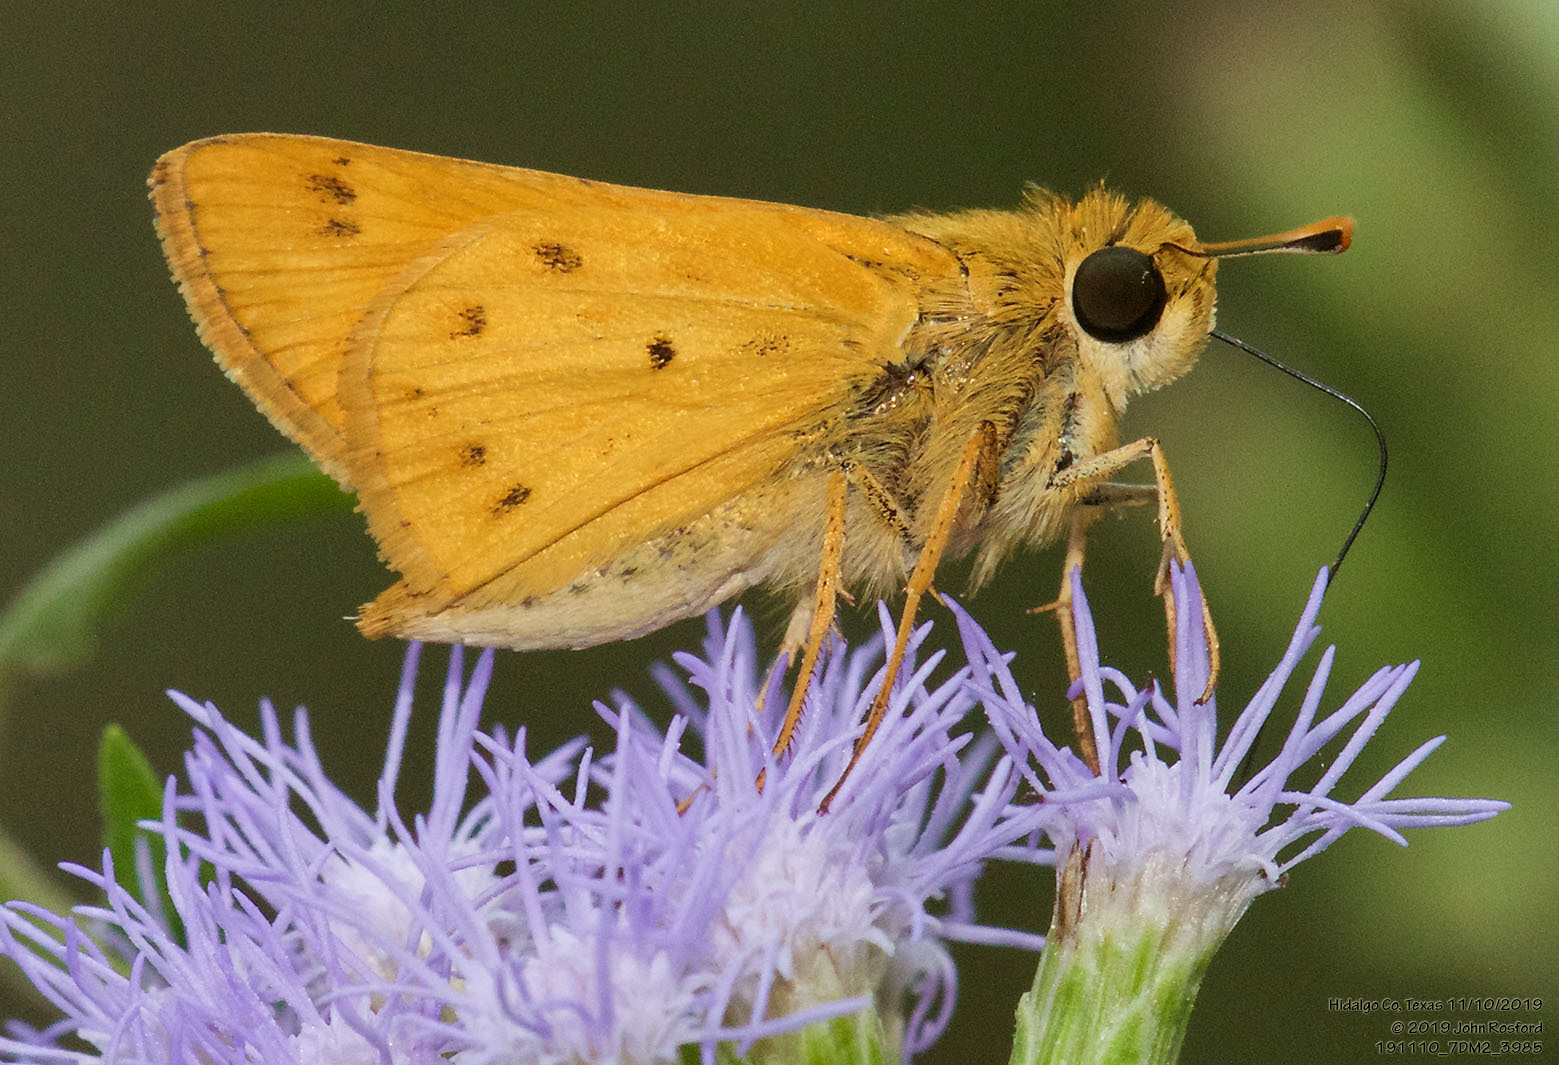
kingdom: Animalia
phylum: Arthropoda
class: Insecta
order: Lepidoptera
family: Hesperiidae
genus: Hylephila
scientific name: Hylephila phyleus
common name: Fiery skipper
